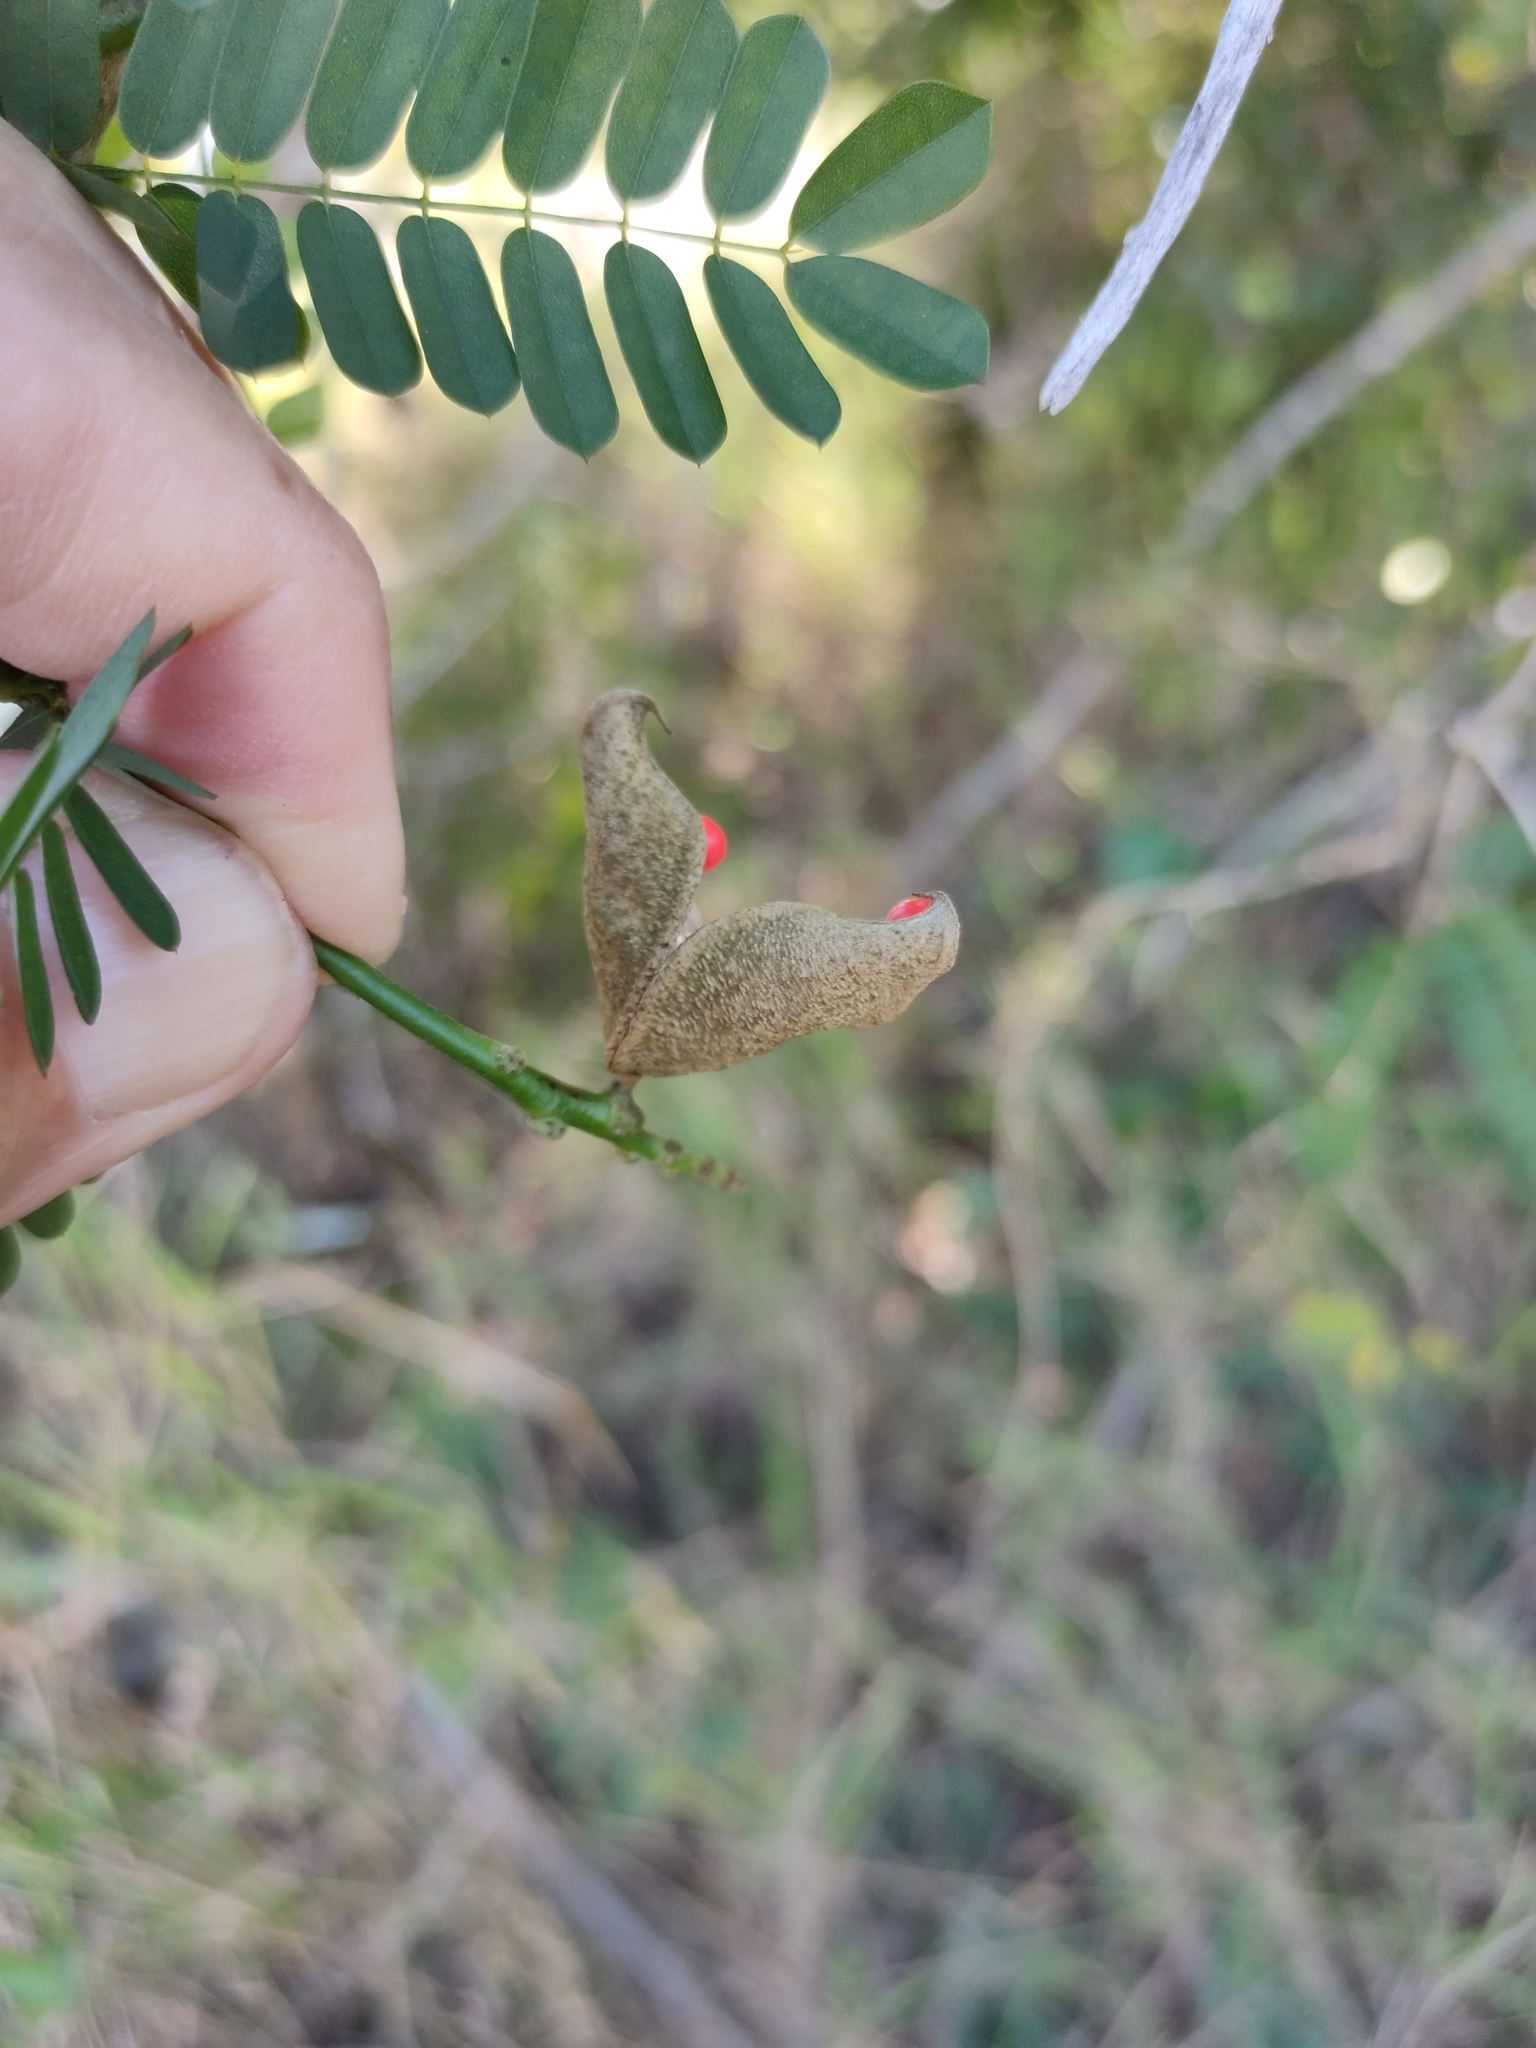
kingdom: Plantae
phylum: Tracheophyta
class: Magnoliopsida
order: Fabales
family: Fabaceae
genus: Abrus
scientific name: Abrus precatorius
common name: Rosarypea
